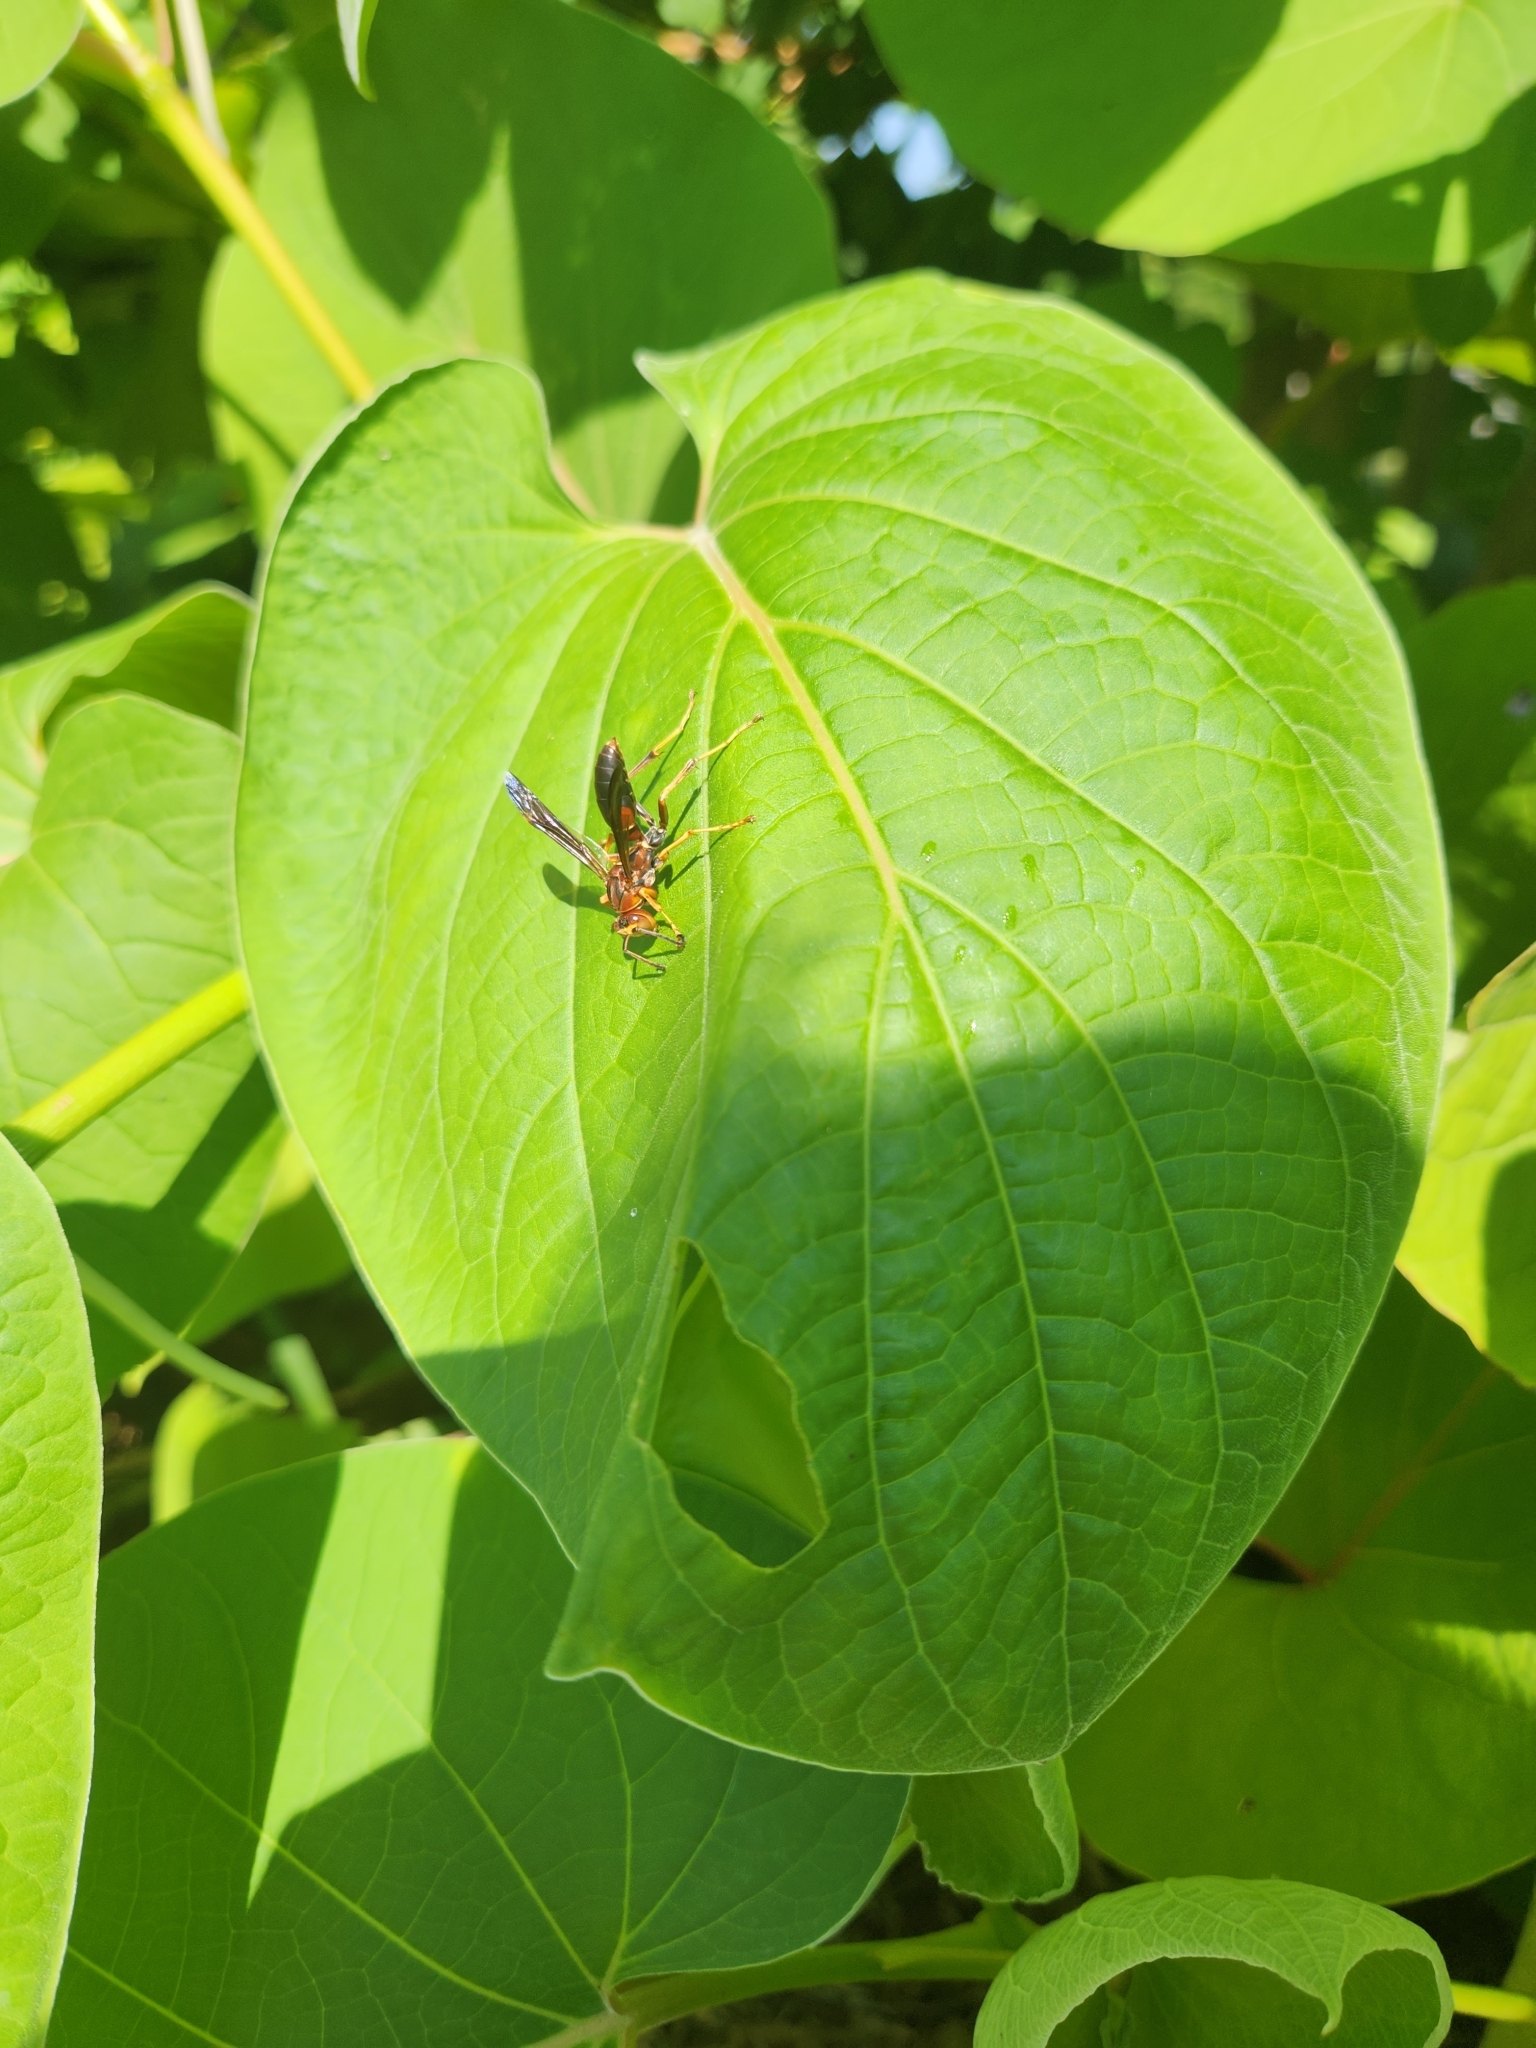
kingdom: Animalia
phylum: Arthropoda
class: Insecta
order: Hymenoptera
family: Eumenidae
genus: Polistes
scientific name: Polistes fuscatus
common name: Dark paper wasp
